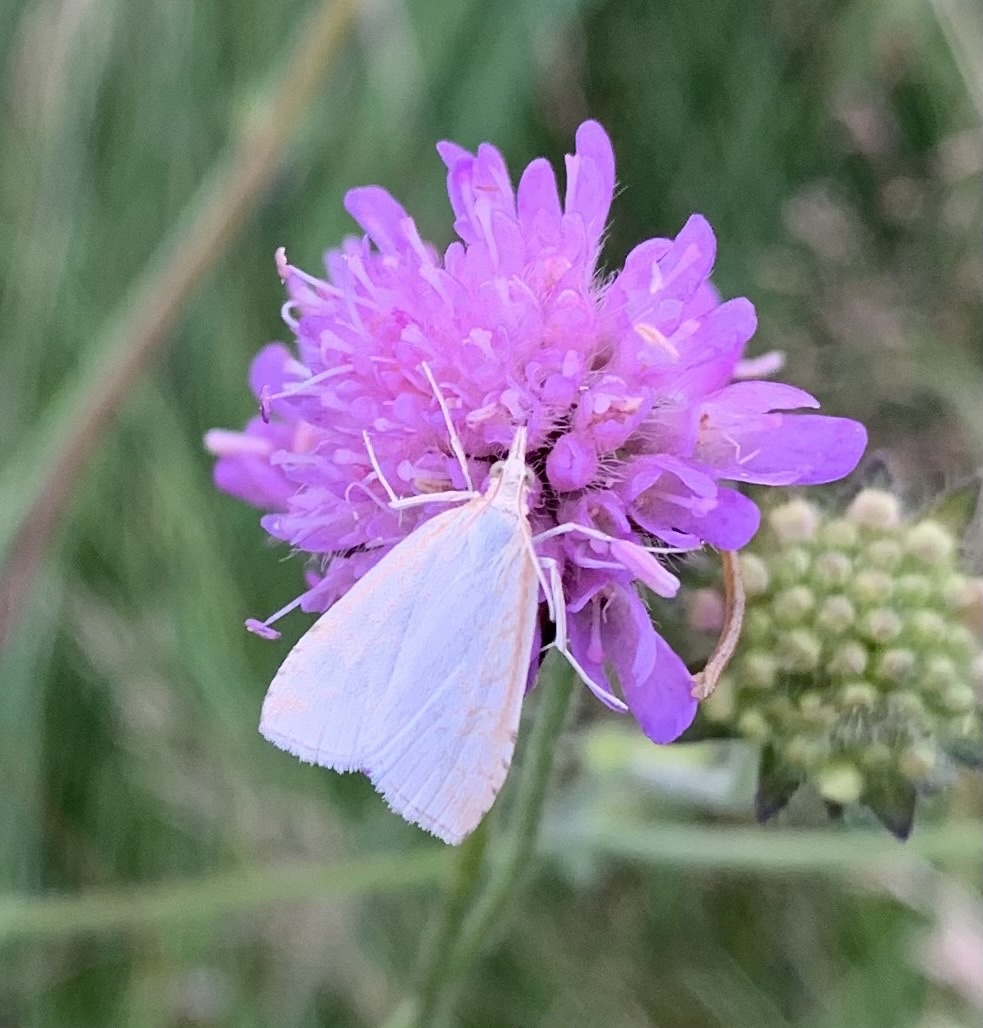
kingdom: Animalia
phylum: Arthropoda
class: Insecta
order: Lepidoptera
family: Crambidae
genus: Udea
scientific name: Udea lutealis
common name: Pale straw pearl
